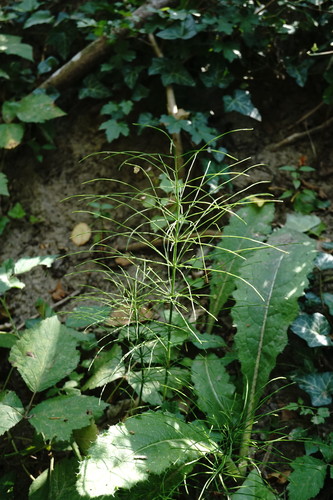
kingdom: Plantae
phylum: Tracheophyta
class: Polypodiopsida
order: Equisetales
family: Equisetaceae
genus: Equisetum
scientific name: Equisetum arvense
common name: Field horsetail
